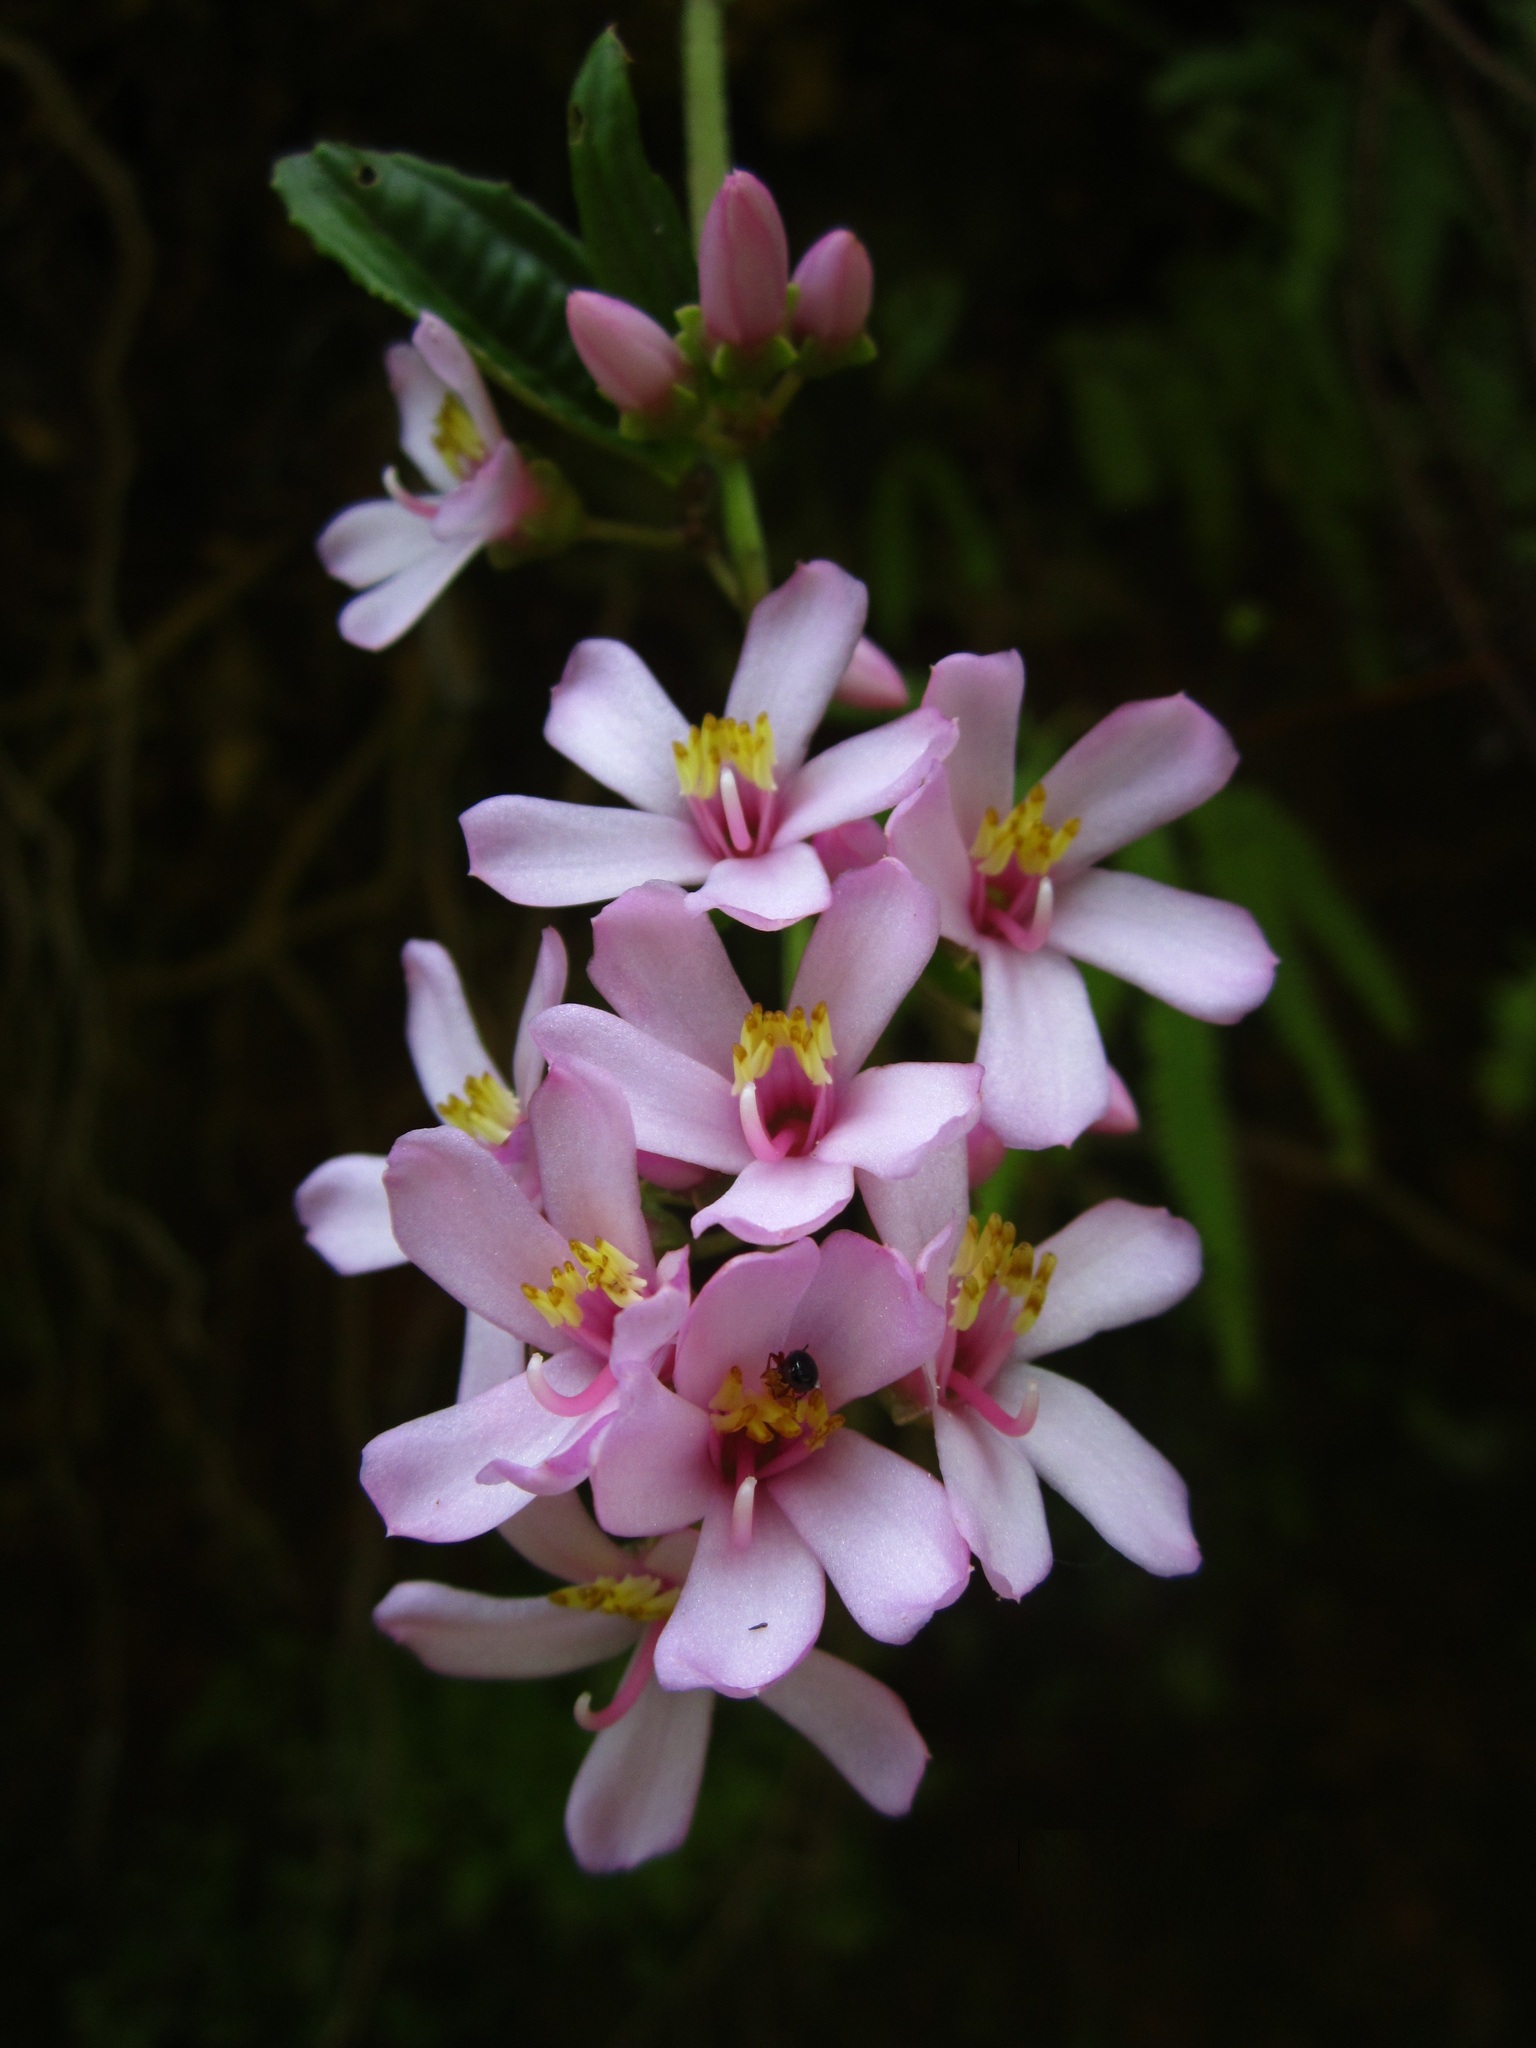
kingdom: Plantae
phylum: Tracheophyta
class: Magnoliopsida
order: Myrtales
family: Melastomataceae
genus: Gravesia
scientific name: Gravesia laxiflora
